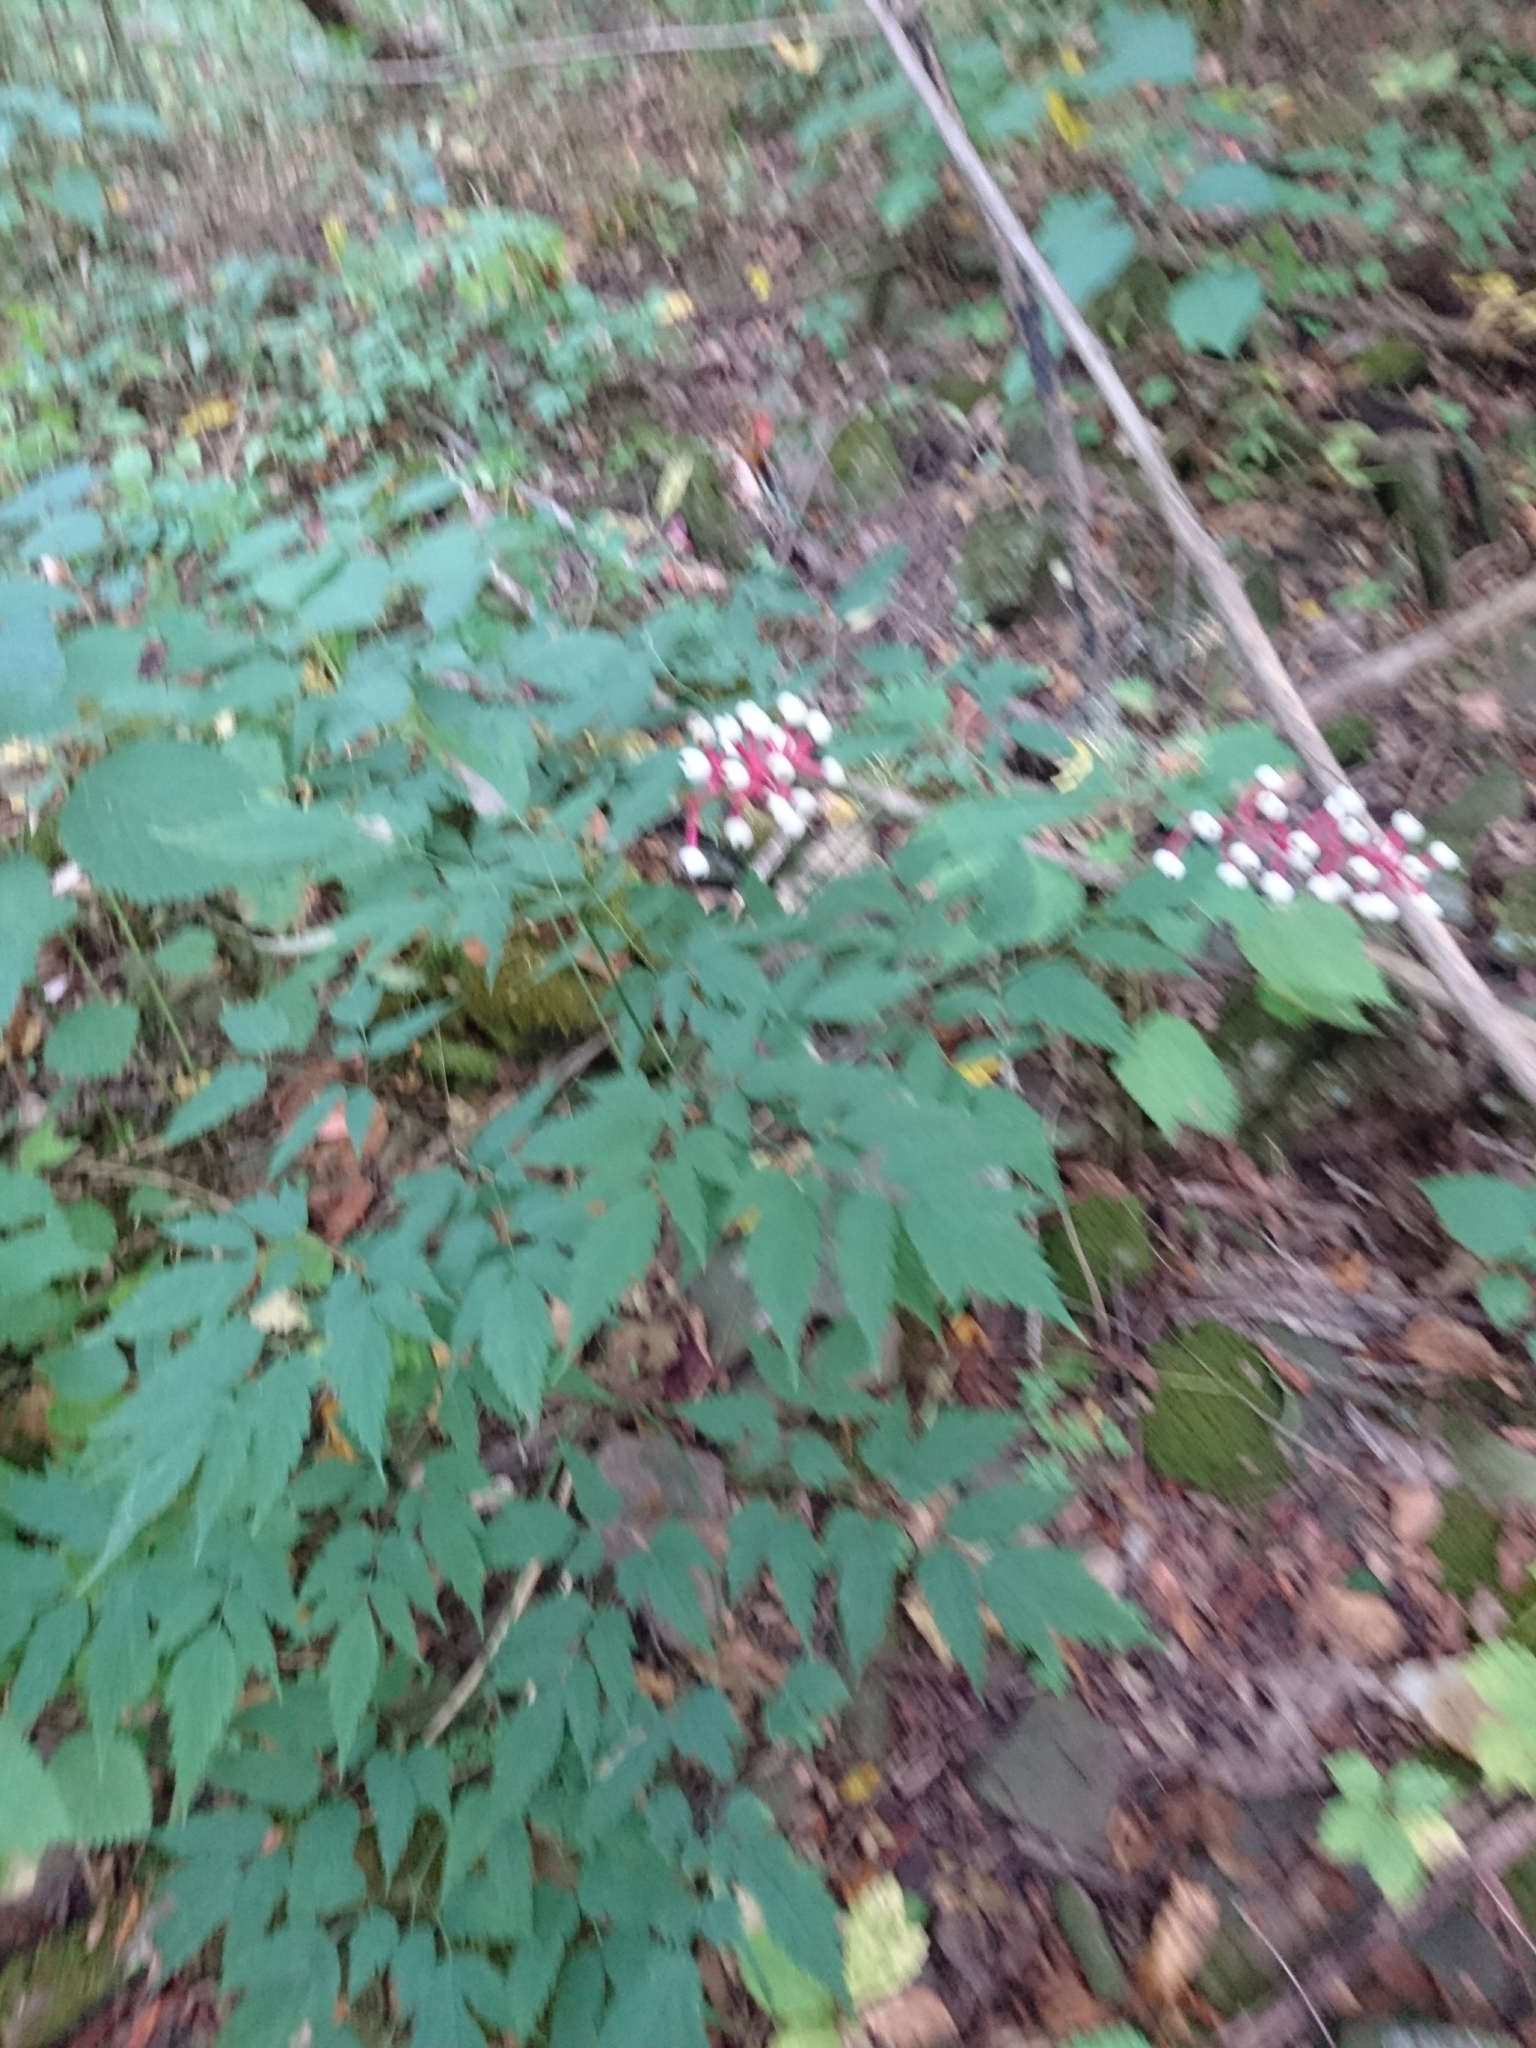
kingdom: Plantae
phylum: Tracheophyta
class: Magnoliopsida
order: Ranunculales
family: Ranunculaceae
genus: Actaea
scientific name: Actaea pachypoda
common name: Doll's-eyes
